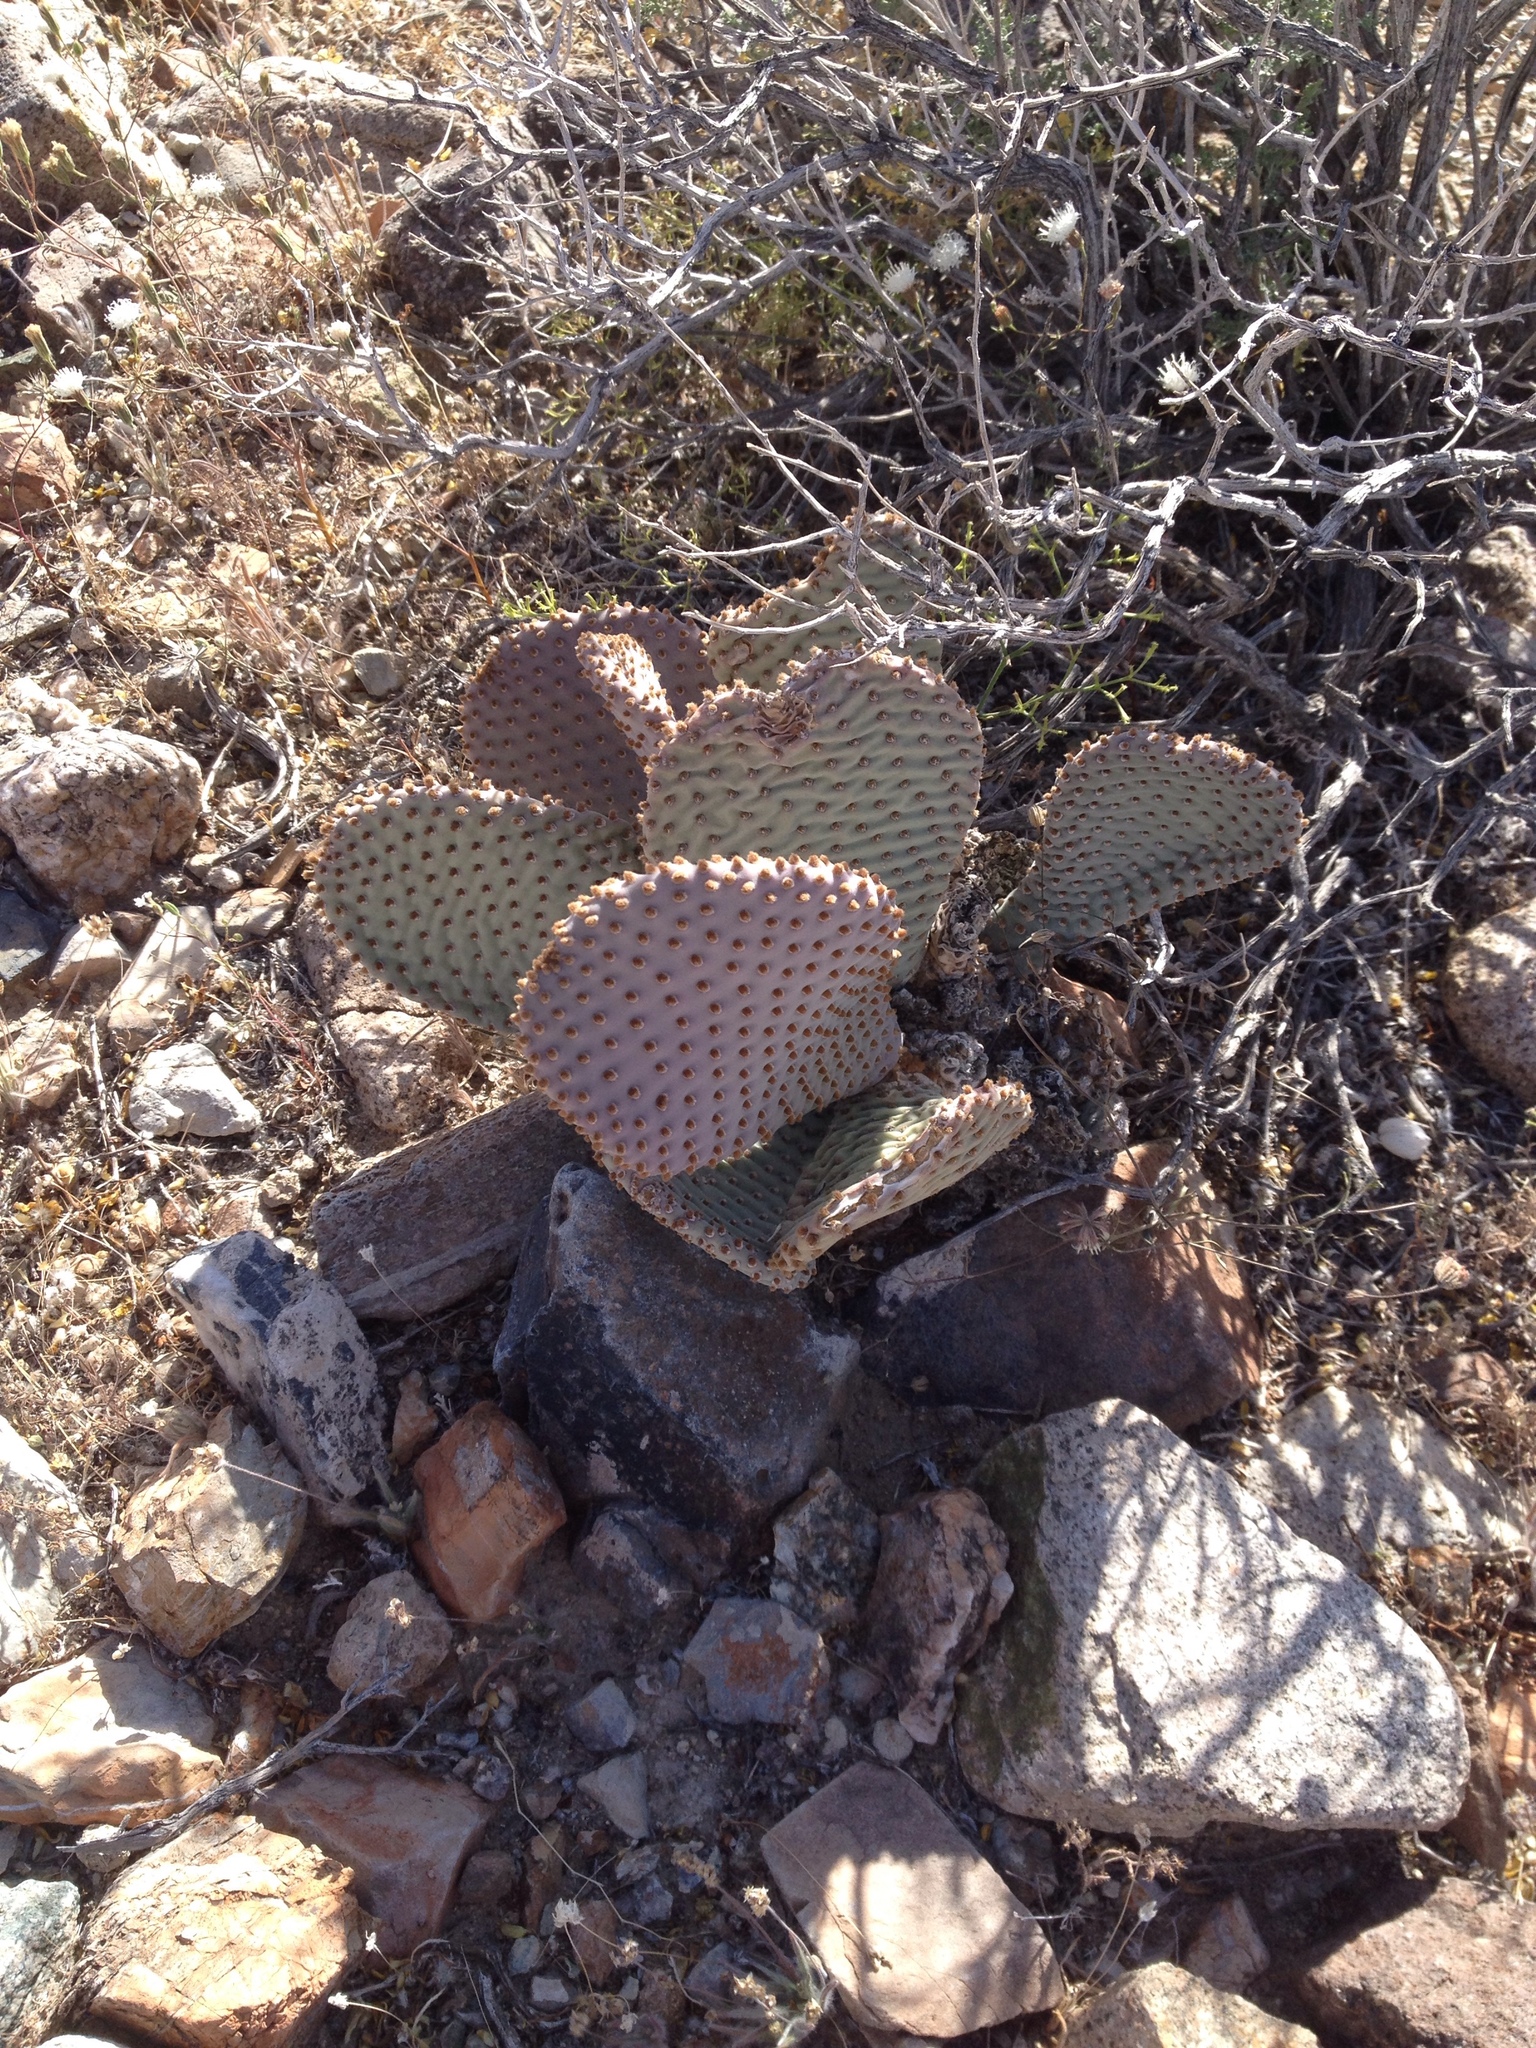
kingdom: Plantae
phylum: Tracheophyta
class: Magnoliopsida
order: Caryophyllales
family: Cactaceae
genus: Opuntia
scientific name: Opuntia basilaris
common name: Beavertail prickly-pear
